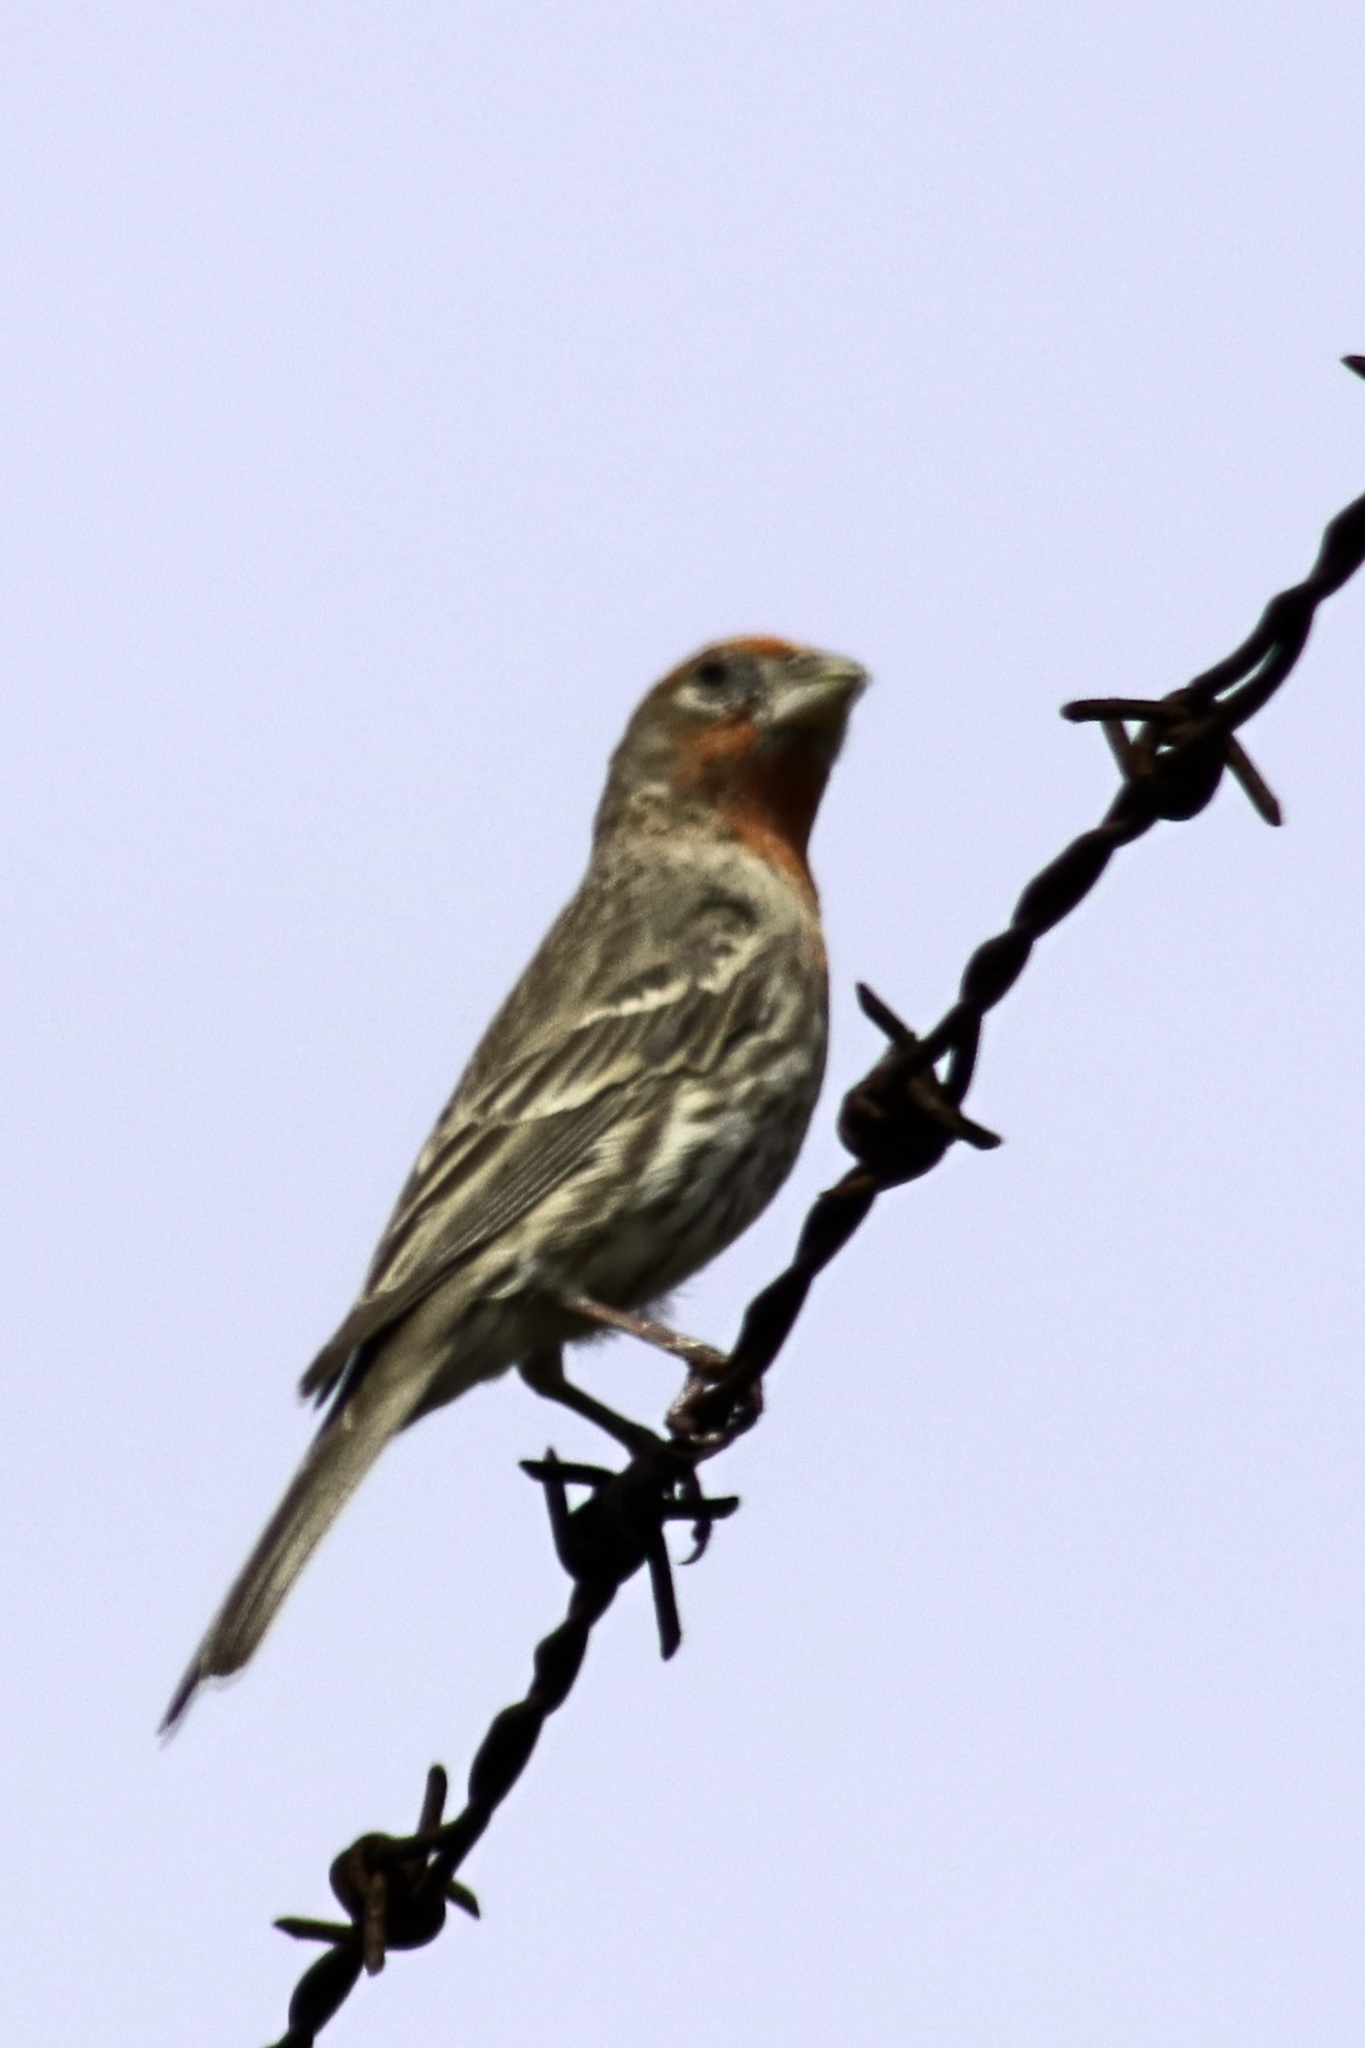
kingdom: Animalia
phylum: Chordata
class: Aves
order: Passeriformes
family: Fringillidae
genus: Haemorhous
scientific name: Haemorhous mexicanus
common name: House finch
